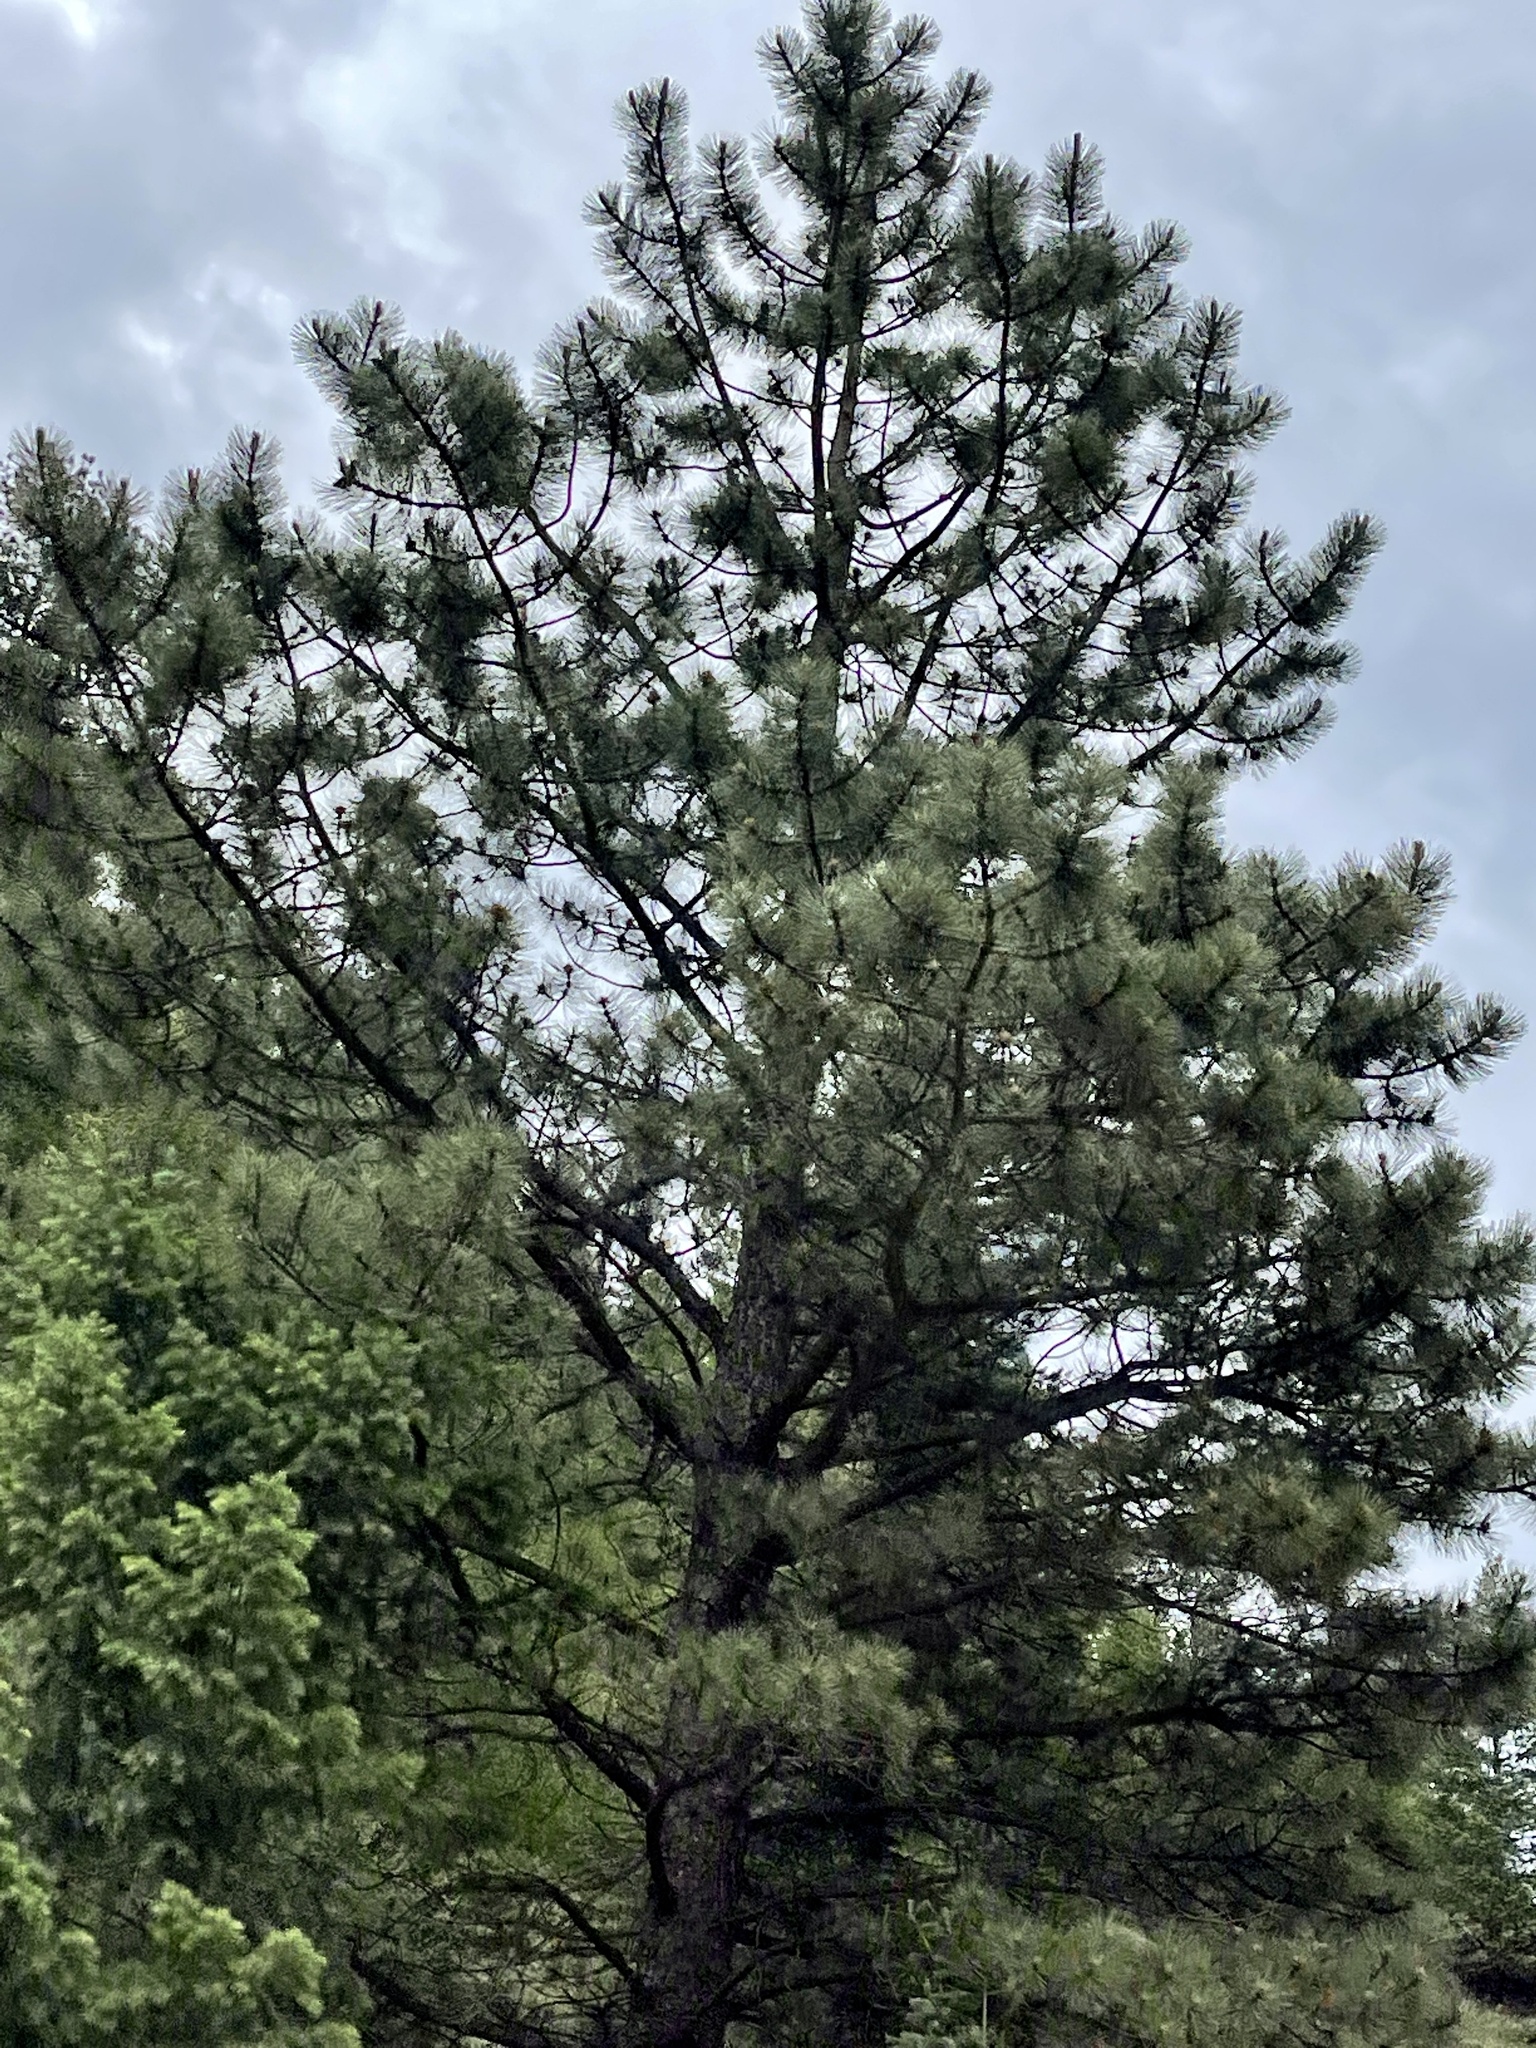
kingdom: Plantae
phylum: Tracheophyta
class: Pinopsida
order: Pinales
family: Pinaceae
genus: Pinus
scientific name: Pinus ponderosa
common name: Western yellow-pine
